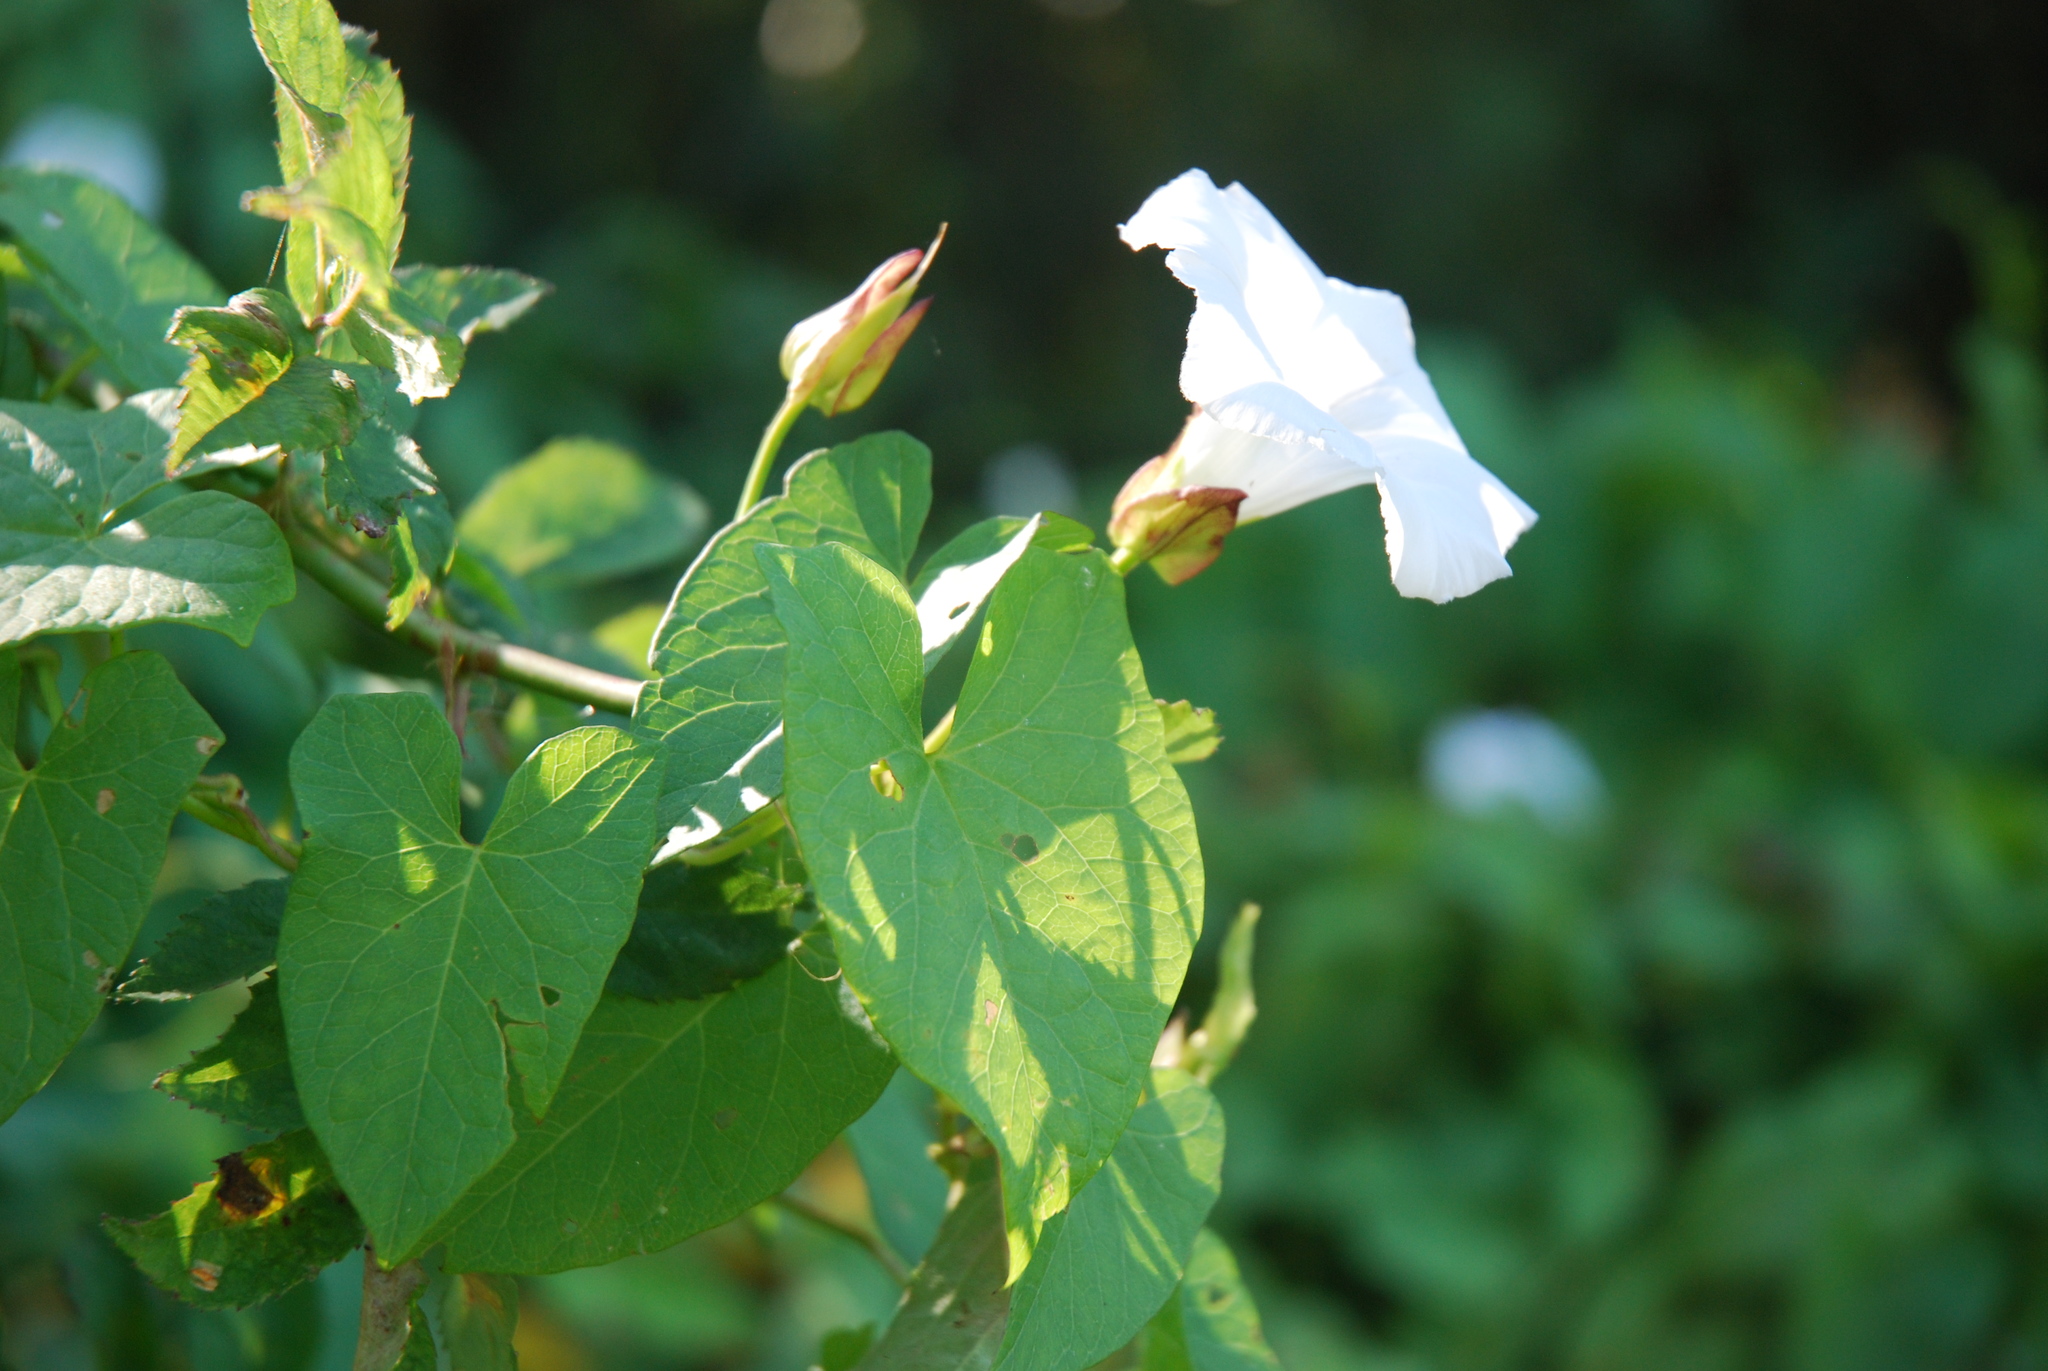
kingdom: Plantae
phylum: Tracheophyta
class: Magnoliopsida
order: Solanales
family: Convolvulaceae
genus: Calystegia
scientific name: Calystegia sepium
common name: Hedge bindweed
